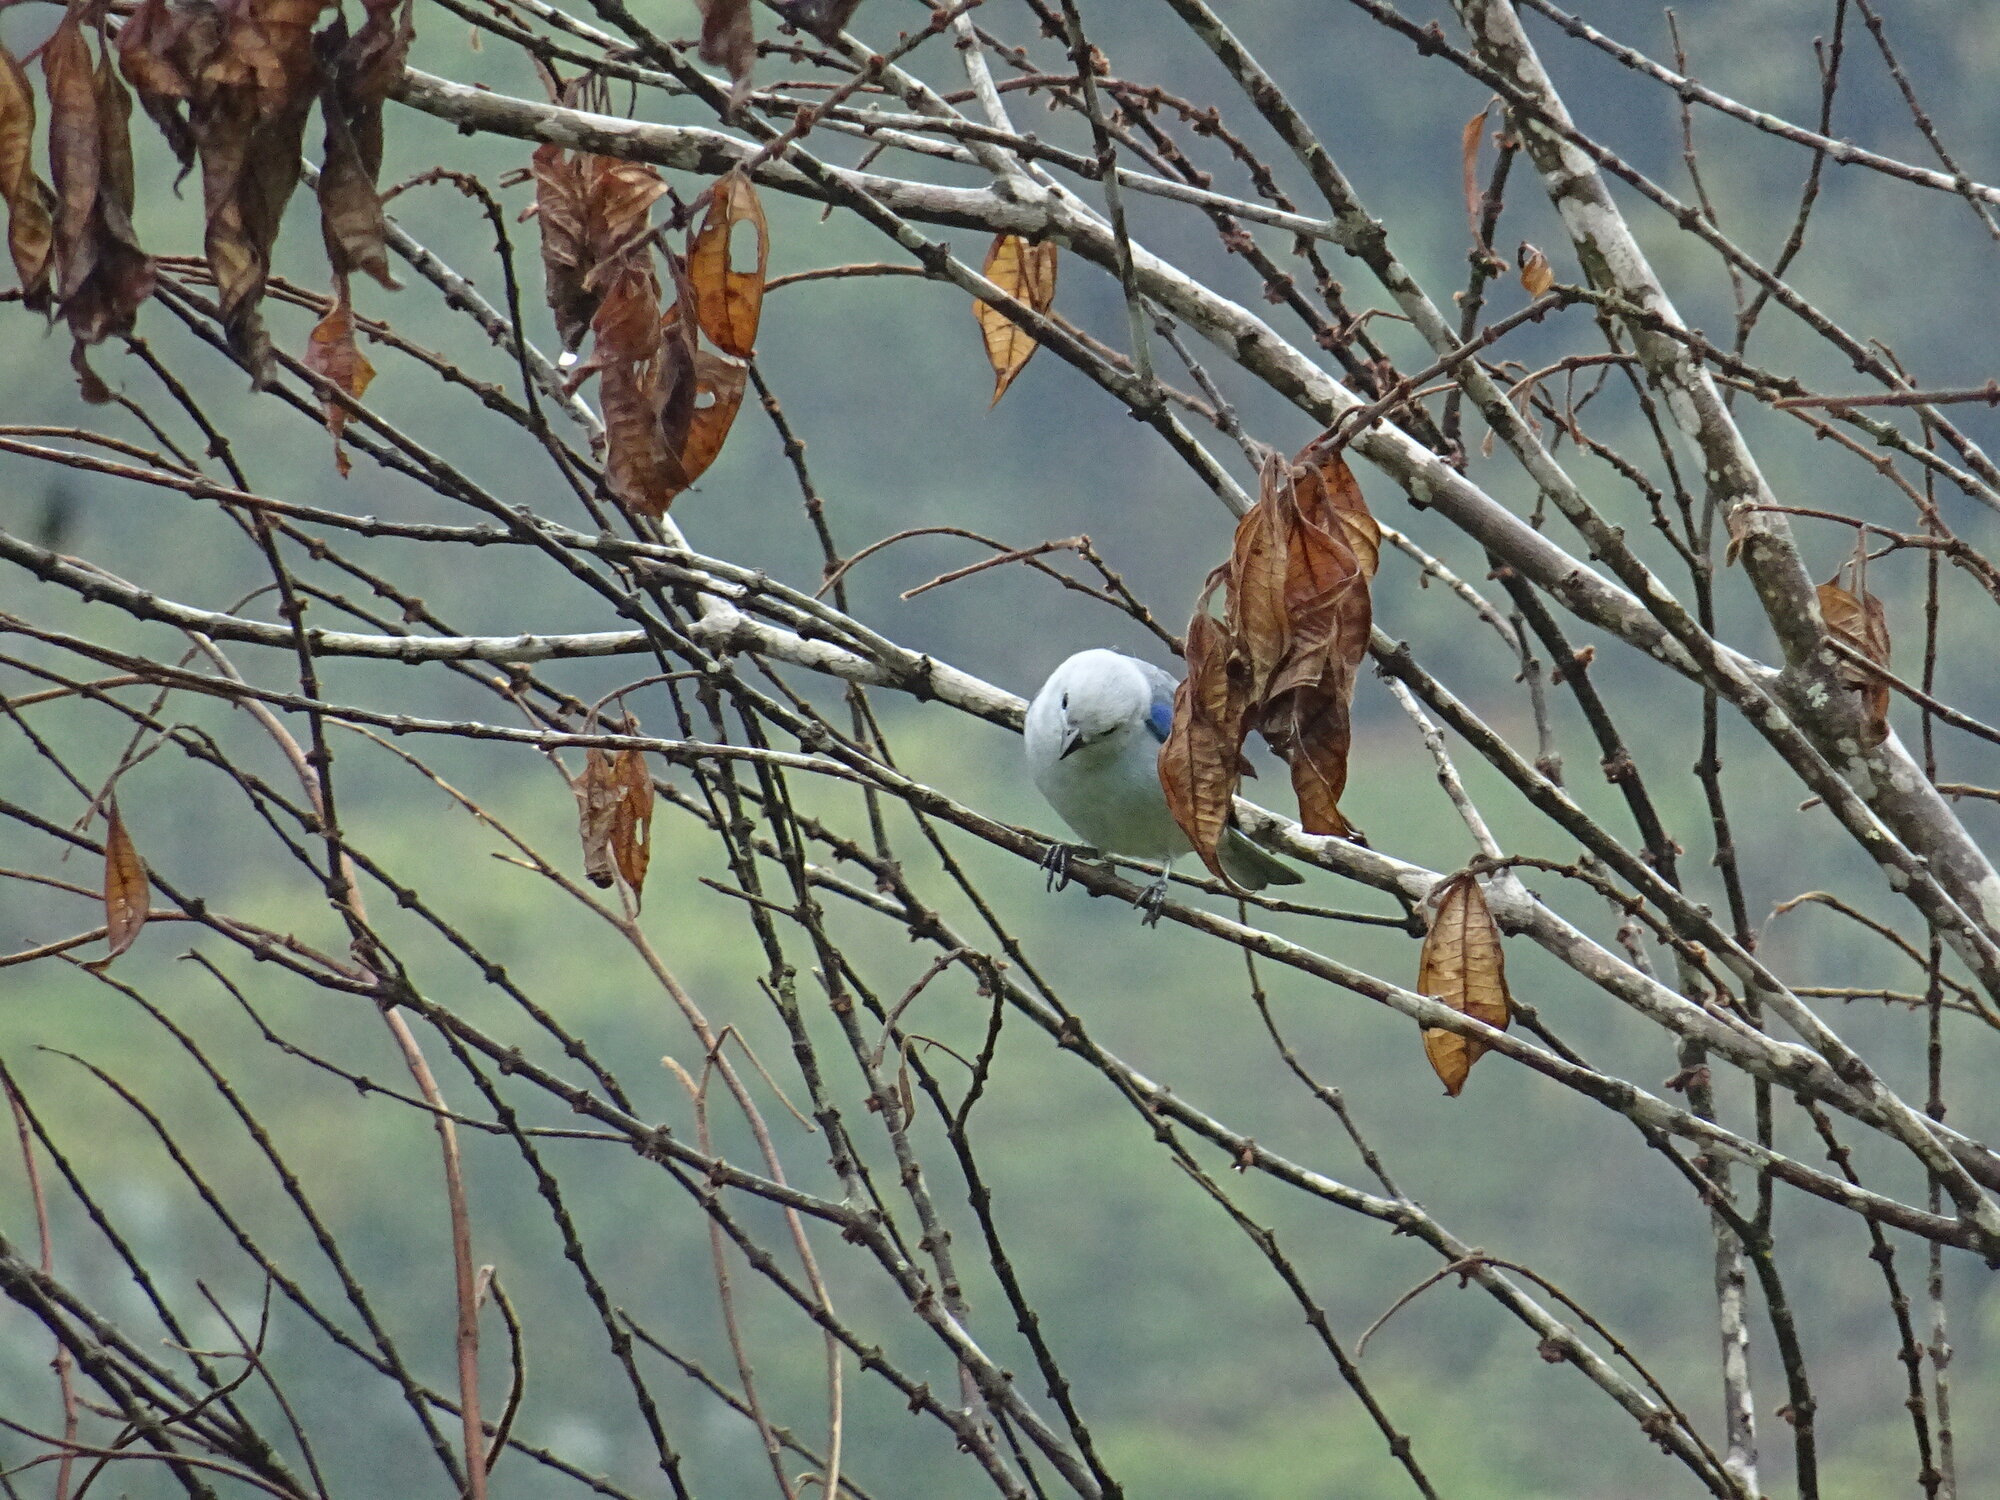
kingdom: Animalia
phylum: Chordata
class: Aves
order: Passeriformes
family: Thraupidae
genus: Thraupis
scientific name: Thraupis episcopus
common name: Blue-grey tanager
